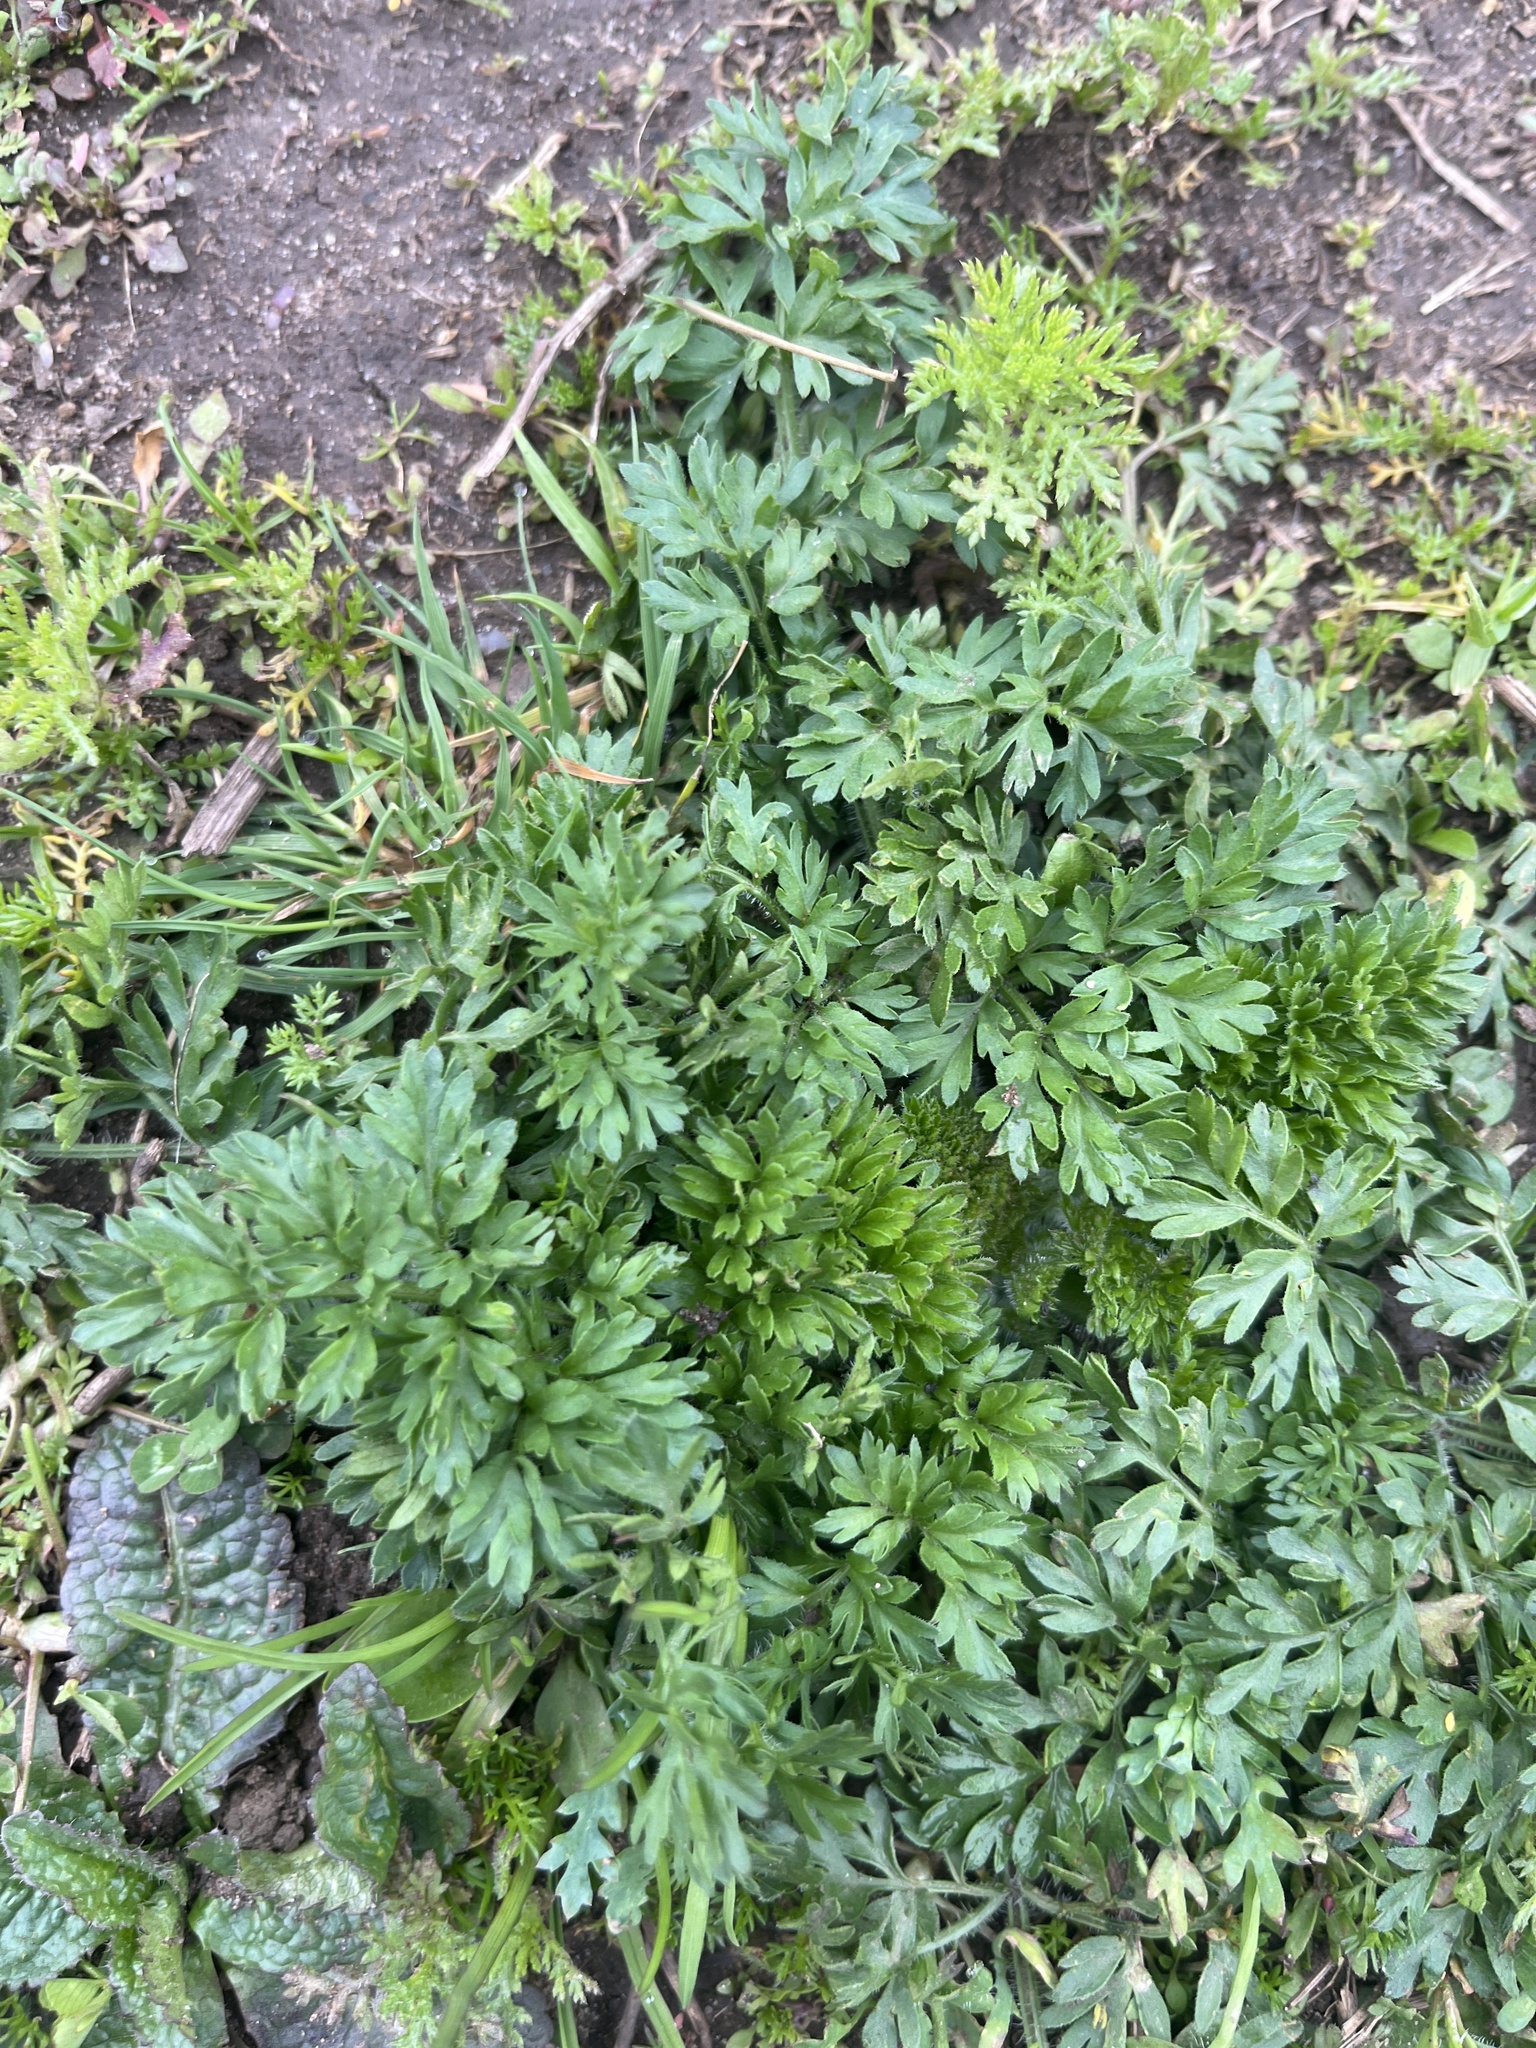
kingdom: Plantae
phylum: Tracheophyta
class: Magnoliopsida
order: Ranunculales
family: Ranunculaceae
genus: Ranunculus
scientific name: Ranunculus repens
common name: Creeping buttercup
